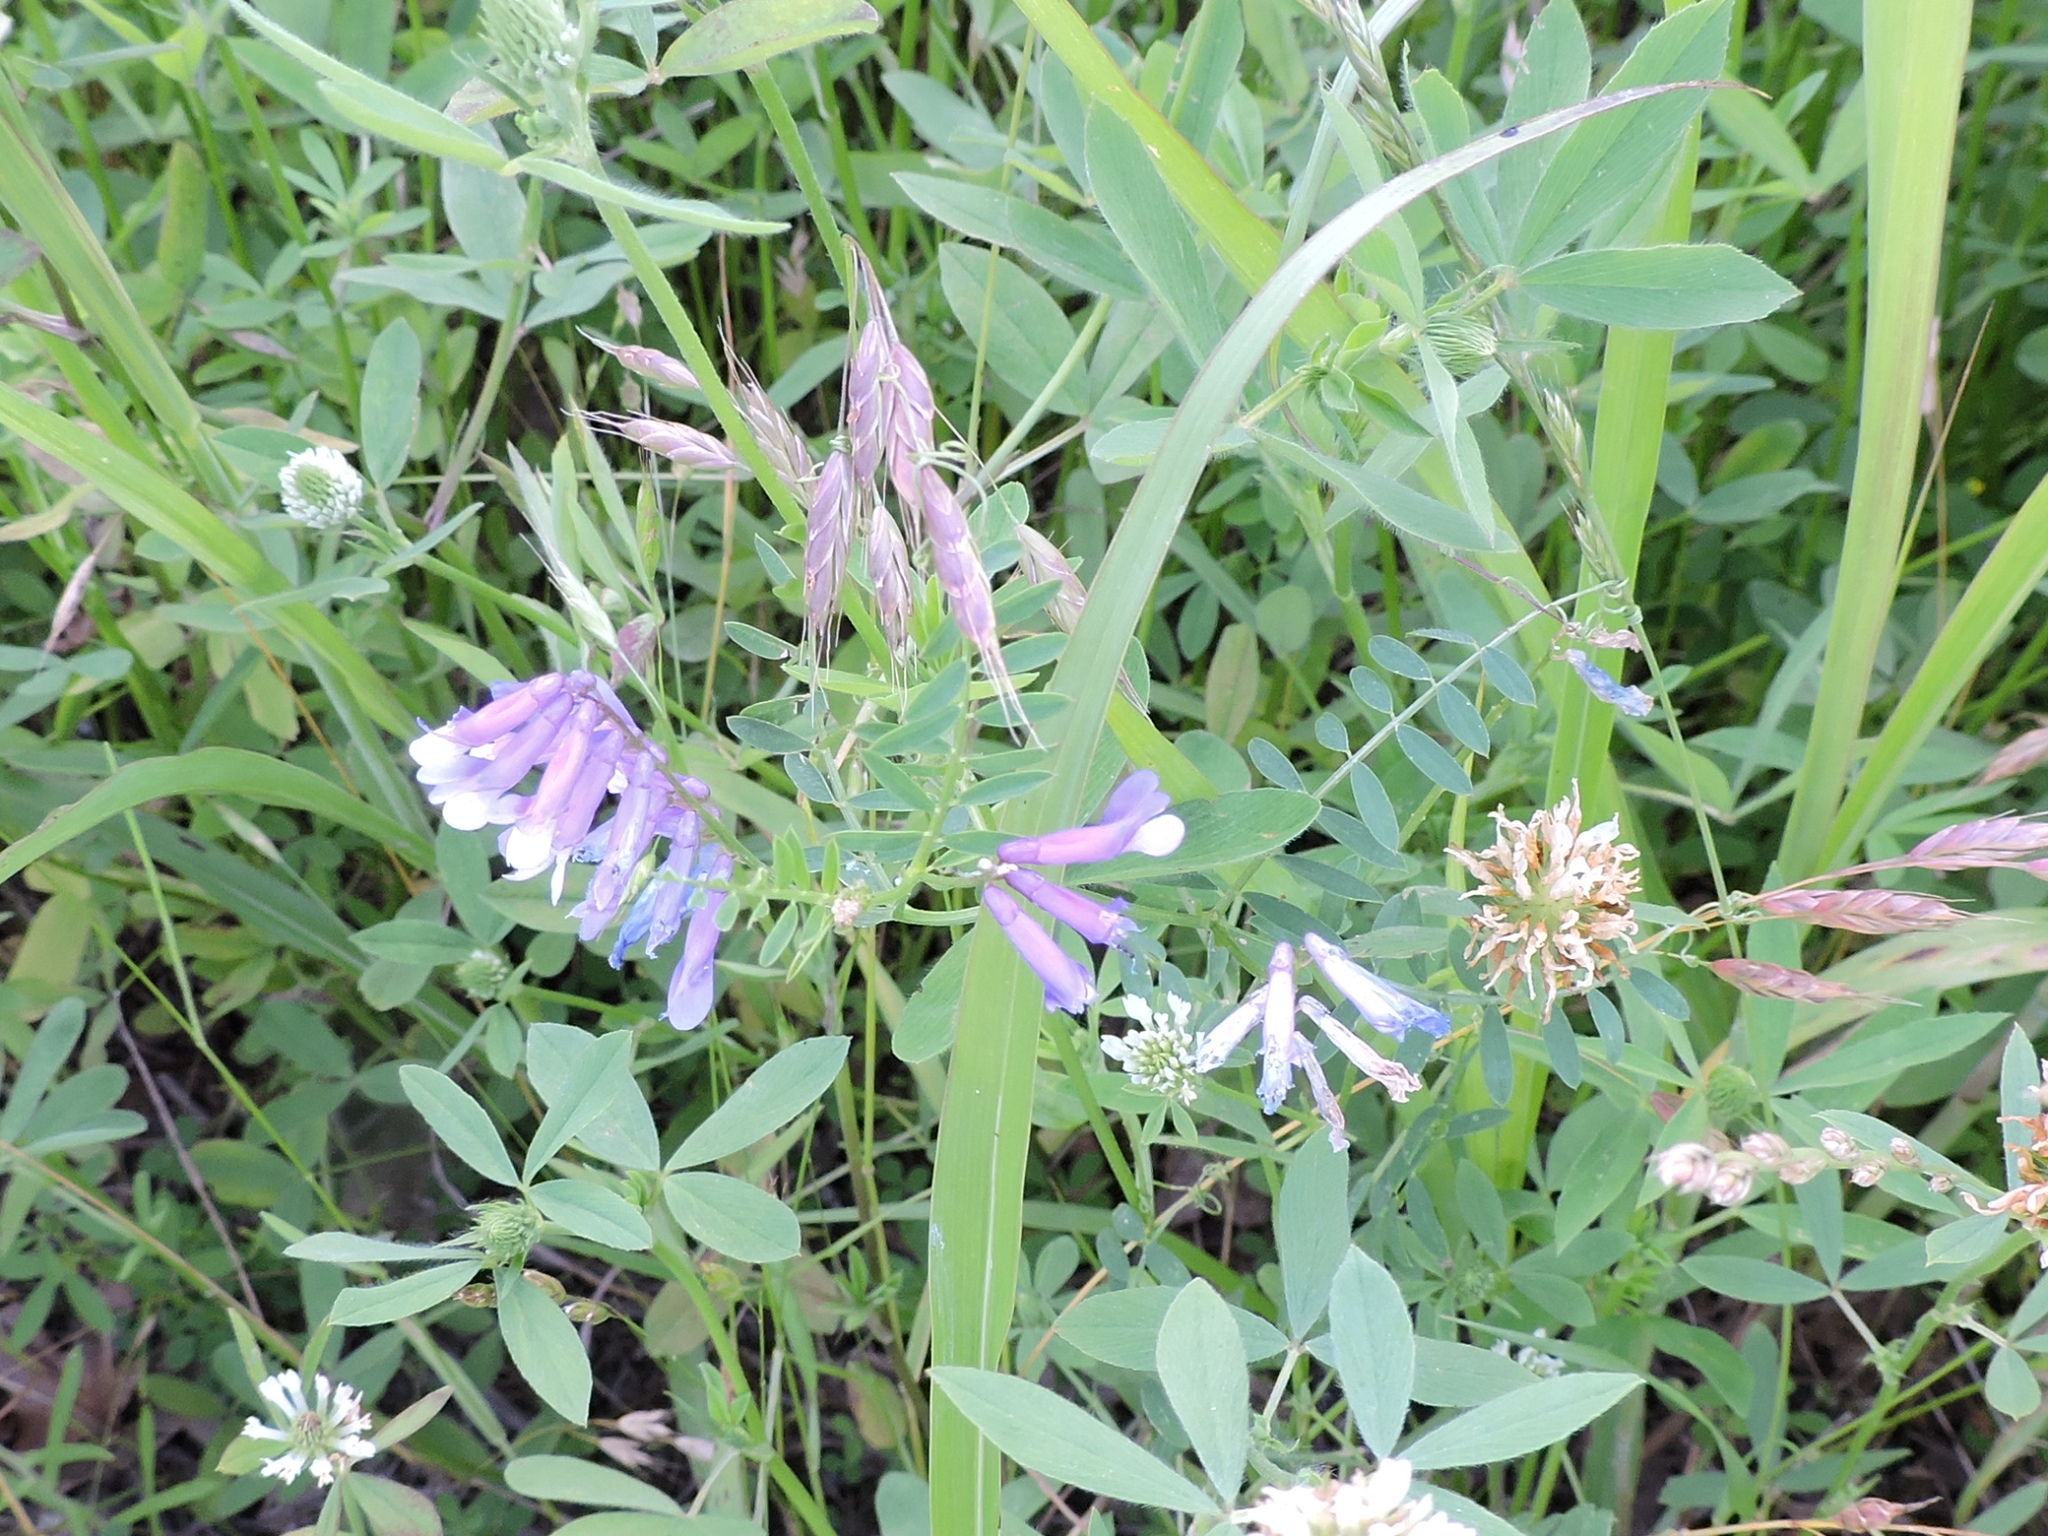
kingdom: Plantae
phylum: Tracheophyta
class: Magnoliopsida
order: Fabales
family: Fabaceae
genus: Vicia
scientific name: Vicia villosa
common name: Fodder vetch
